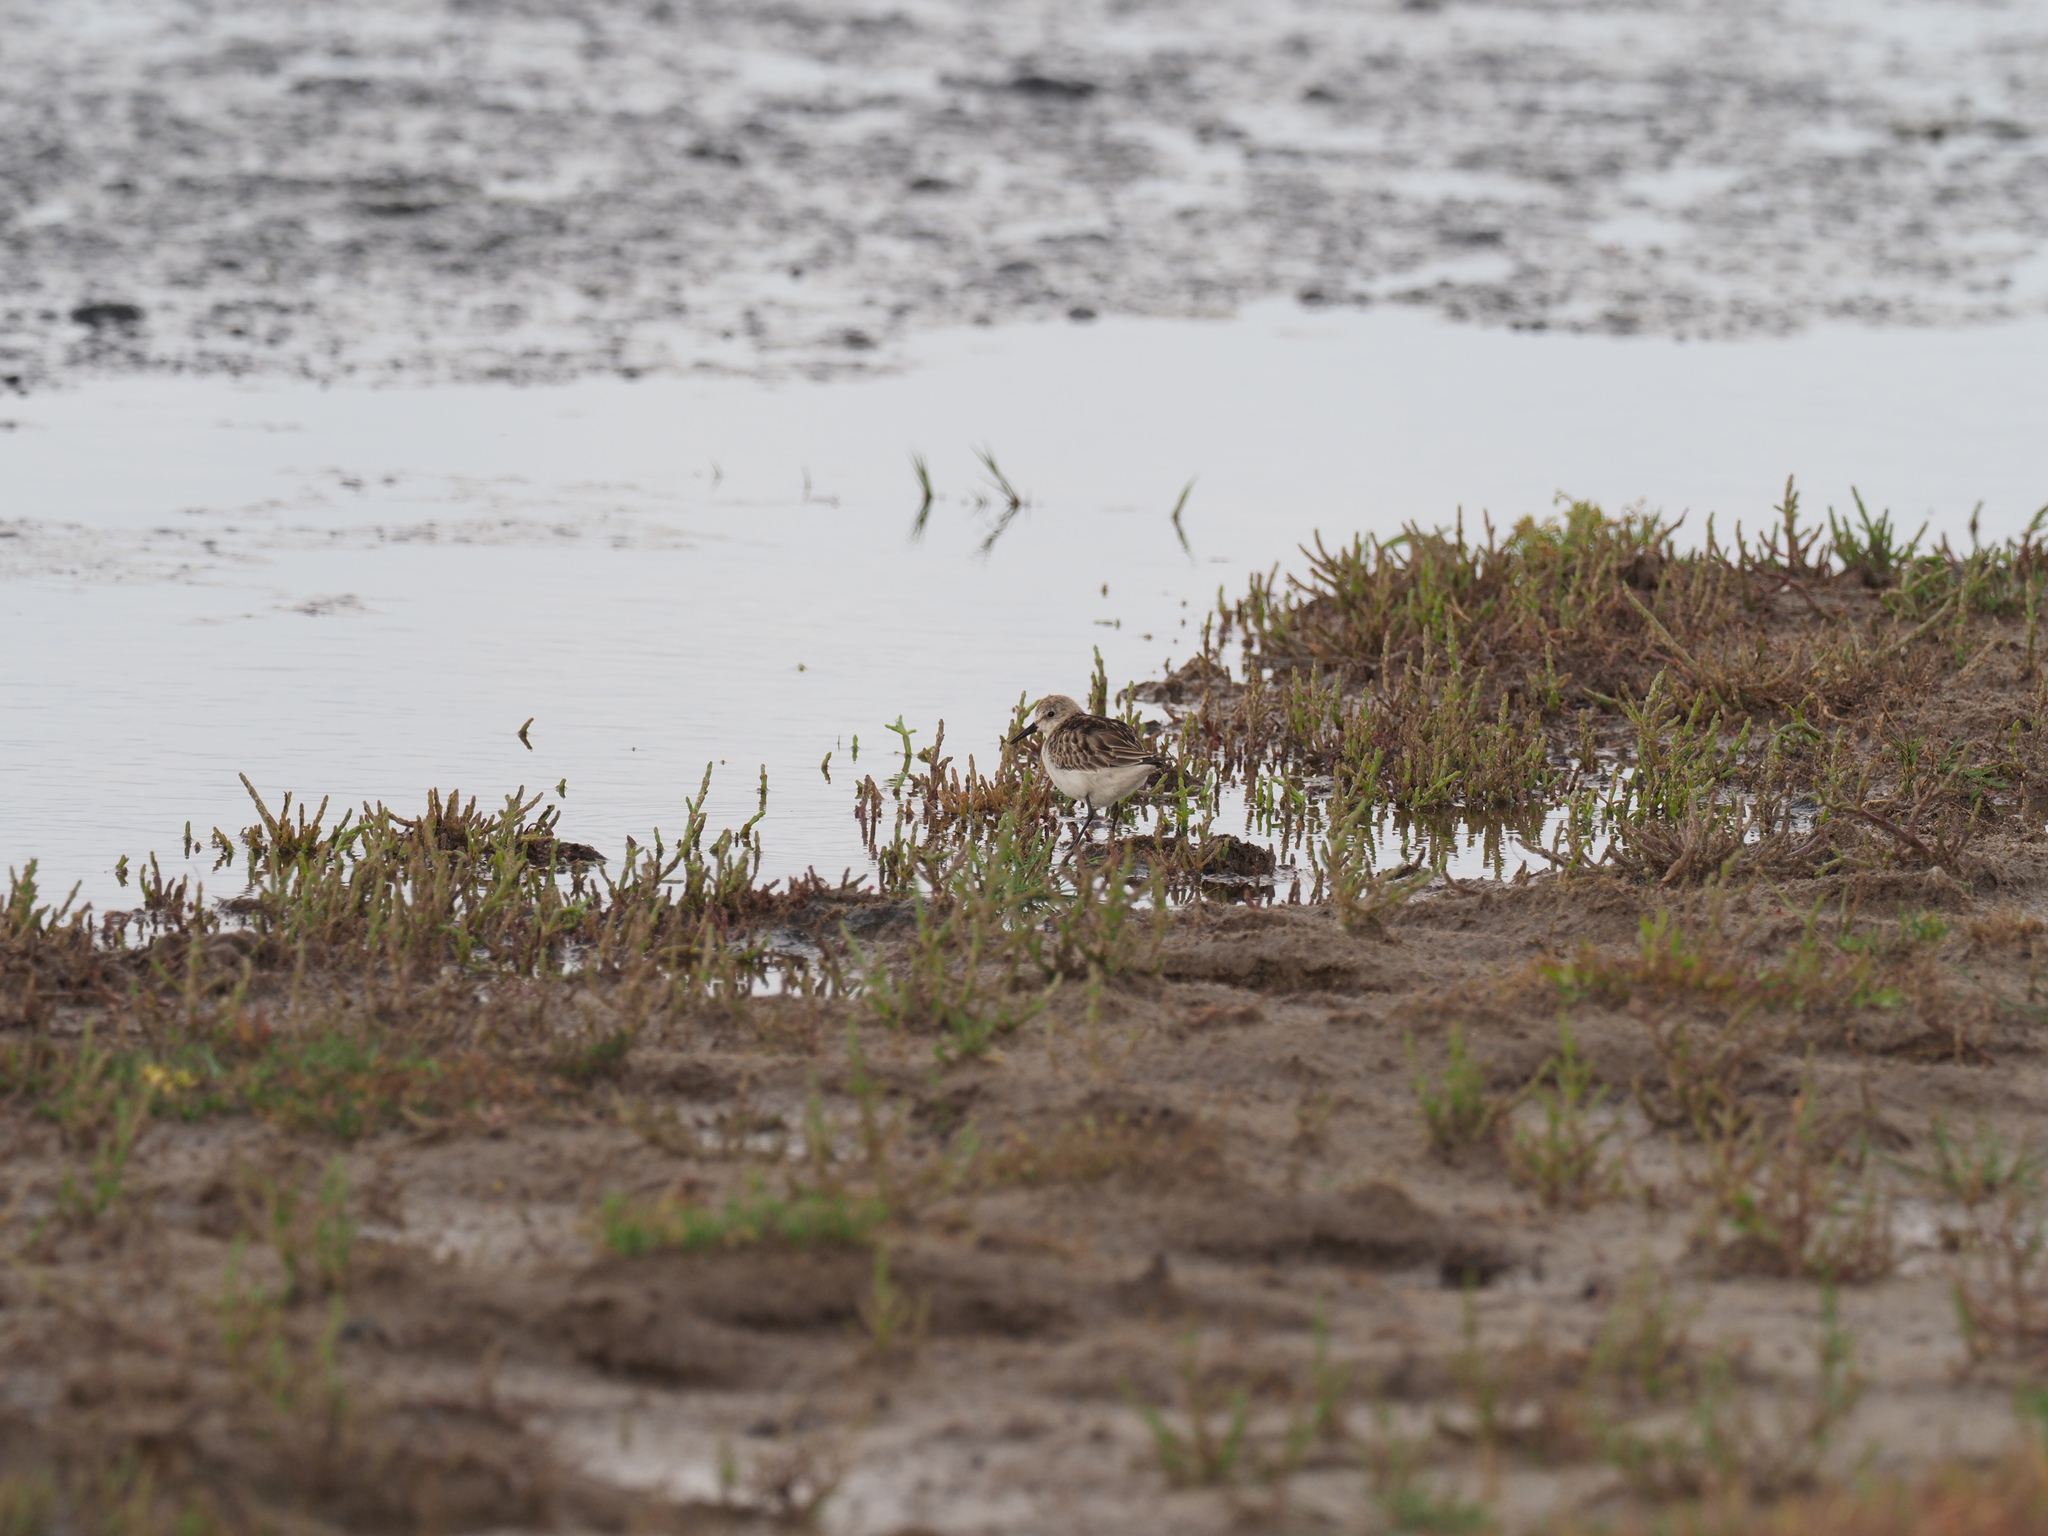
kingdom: Animalia
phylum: Chordata
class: Aves
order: Charadriiformes
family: Scolopacidae
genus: Calidris
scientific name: Calidris minuta
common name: Little stint
